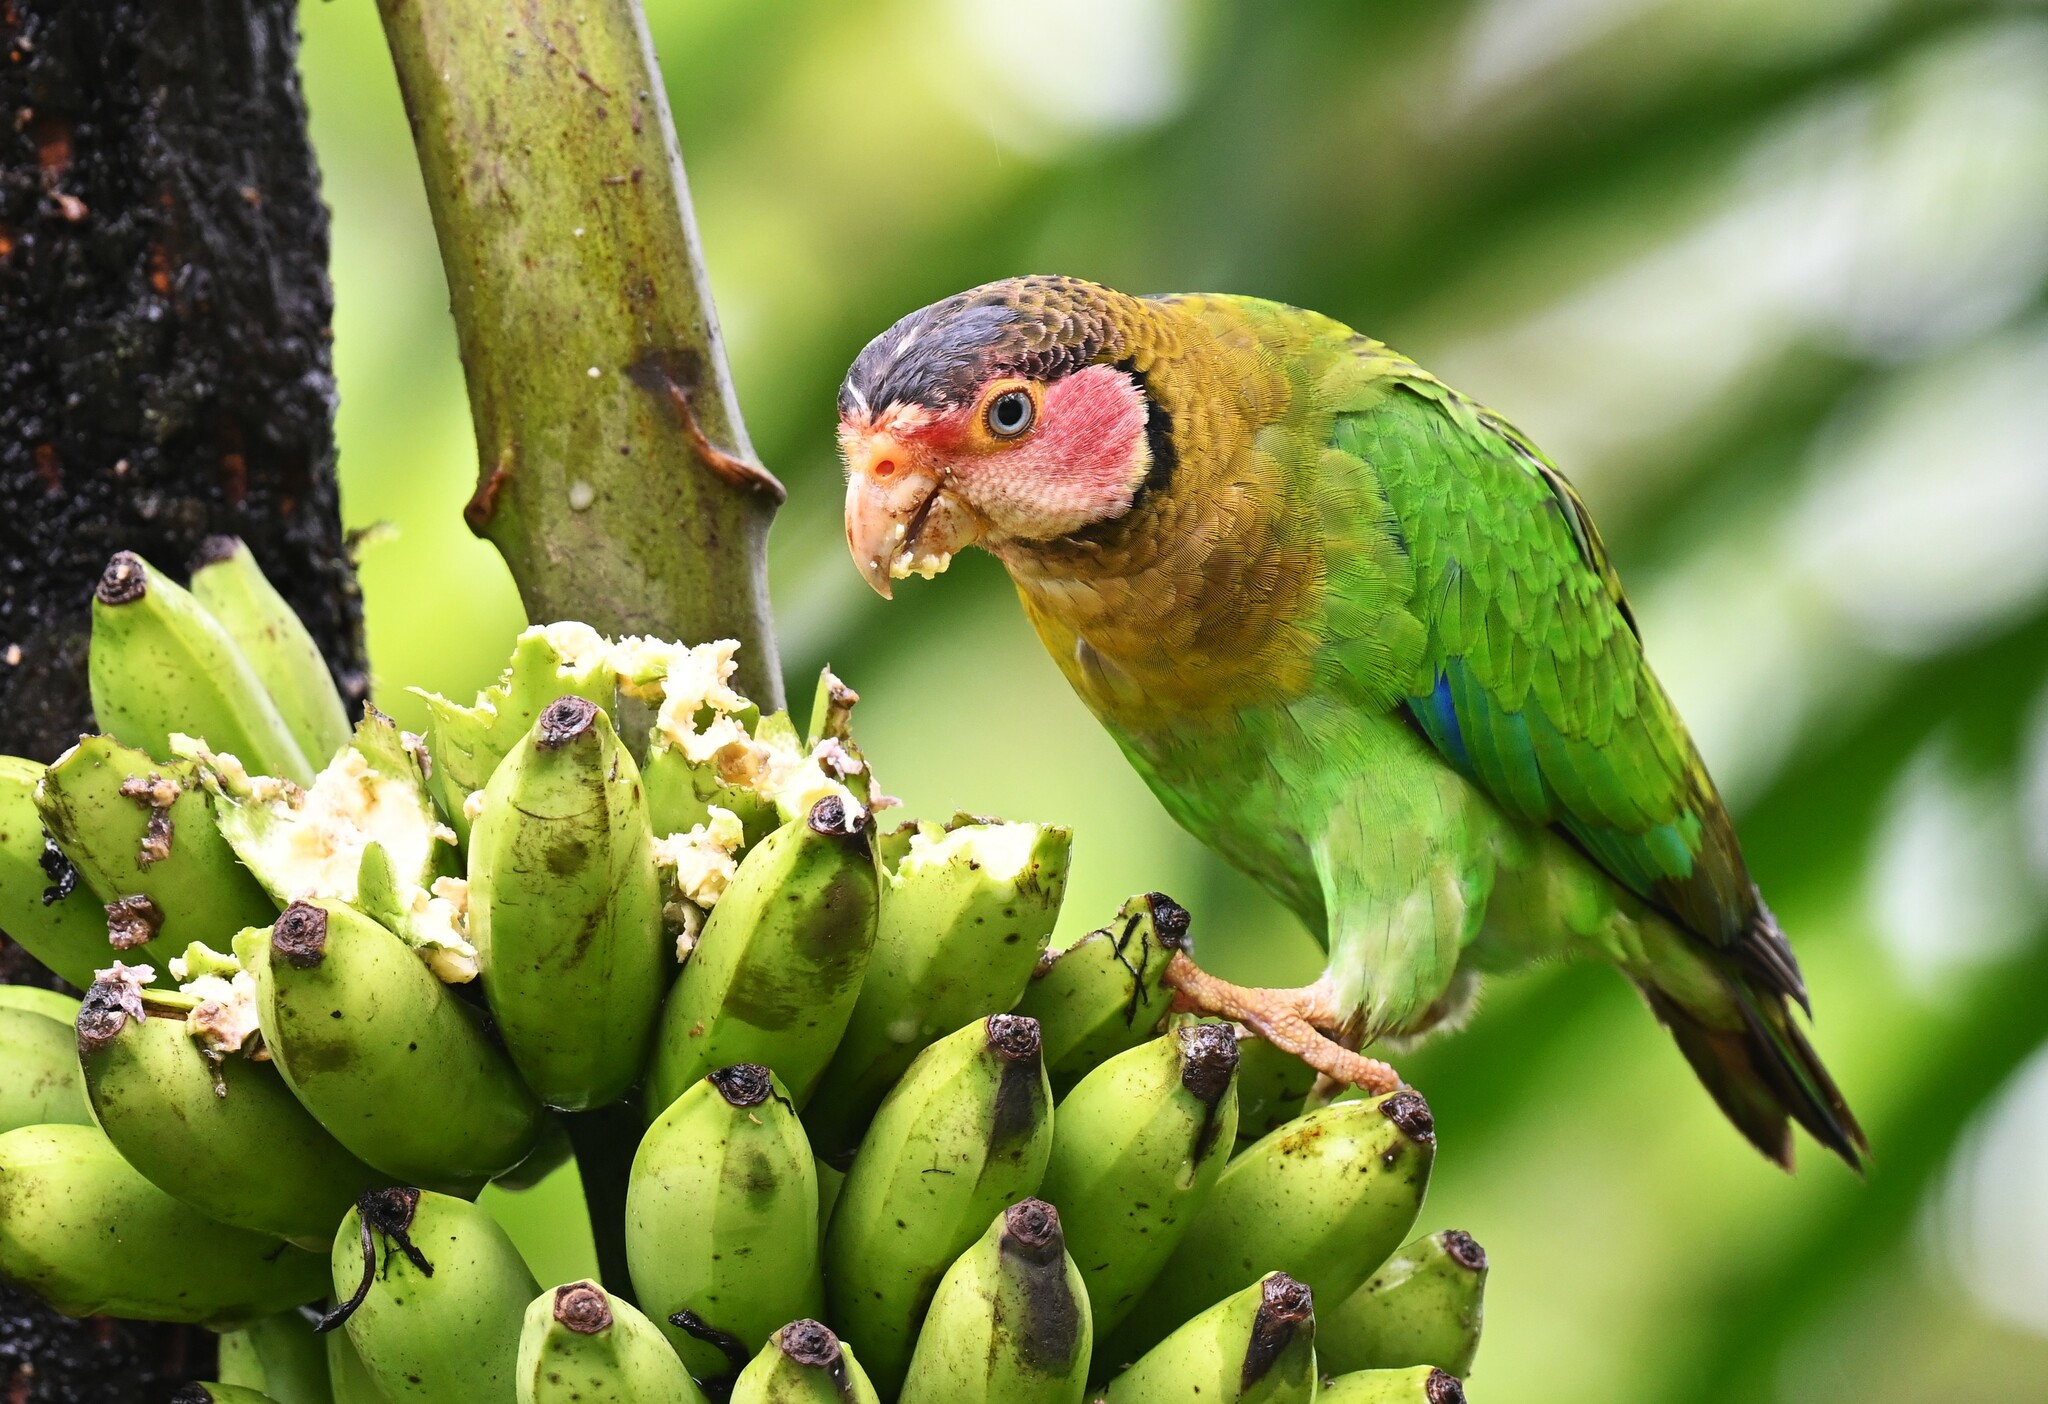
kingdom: Animalia
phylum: Chordata
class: Aves
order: Psittaciformes
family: Psittacidae
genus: Pionopsitta
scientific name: Pionopsitta pulchra
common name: Rose-faced parrot
